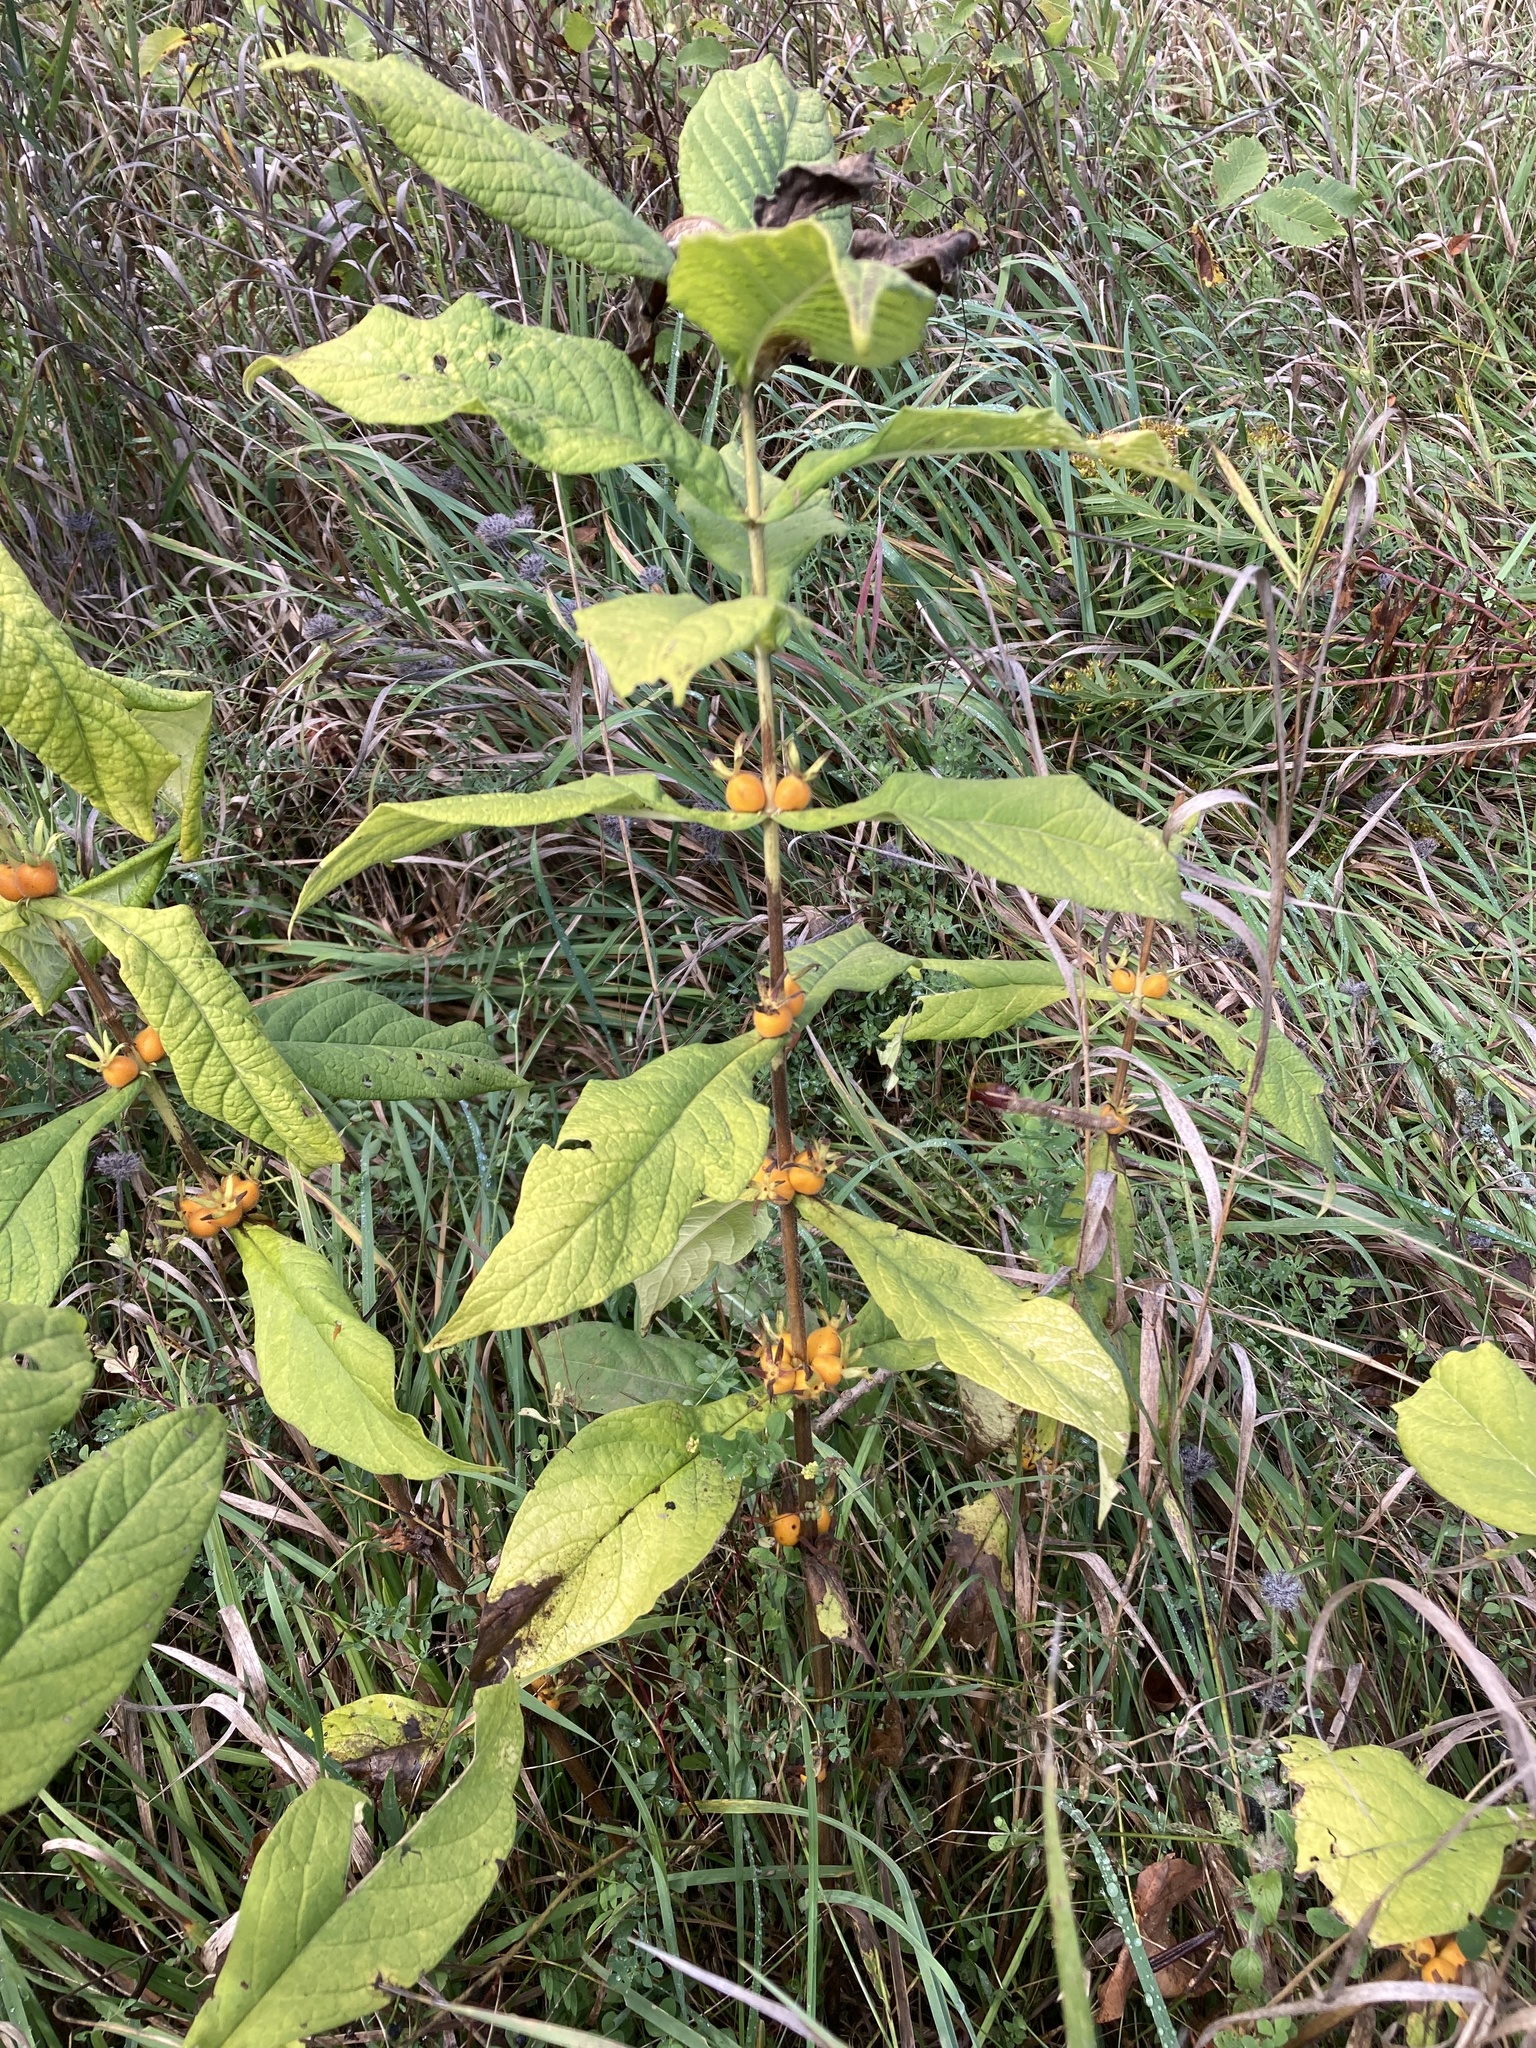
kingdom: Plantae
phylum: Tracheophyta
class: Magnoliopsida
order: Dipsacales
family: Caprifoliaceae
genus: Triosteum
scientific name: Triosteum aurantiacum
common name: Coffee tinker's-weed
